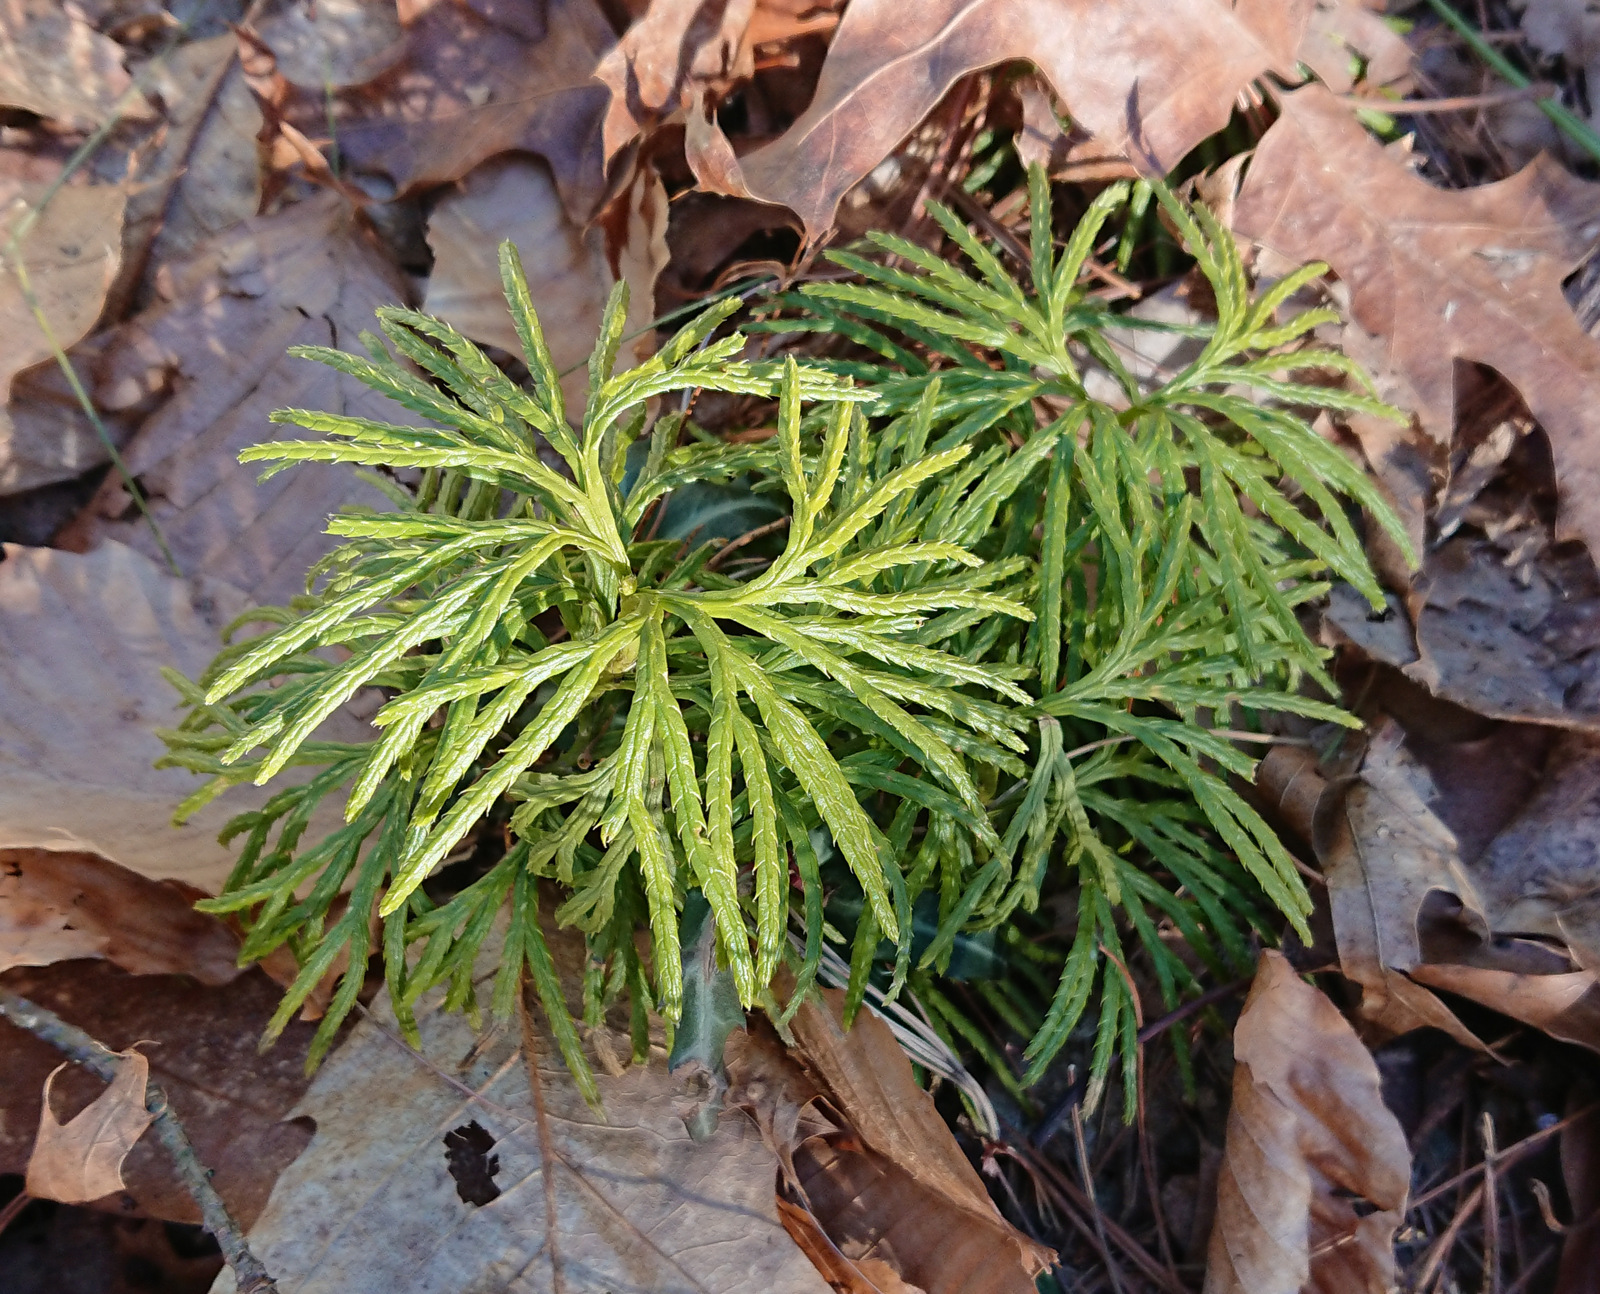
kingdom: Plantae
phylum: Tracheophyta
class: Lycopodiopsida
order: Lycopodiales
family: Lycopodiaceae
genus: Diphasiastrum
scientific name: Diphasiastrum digitatum
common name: Southern running-pine
